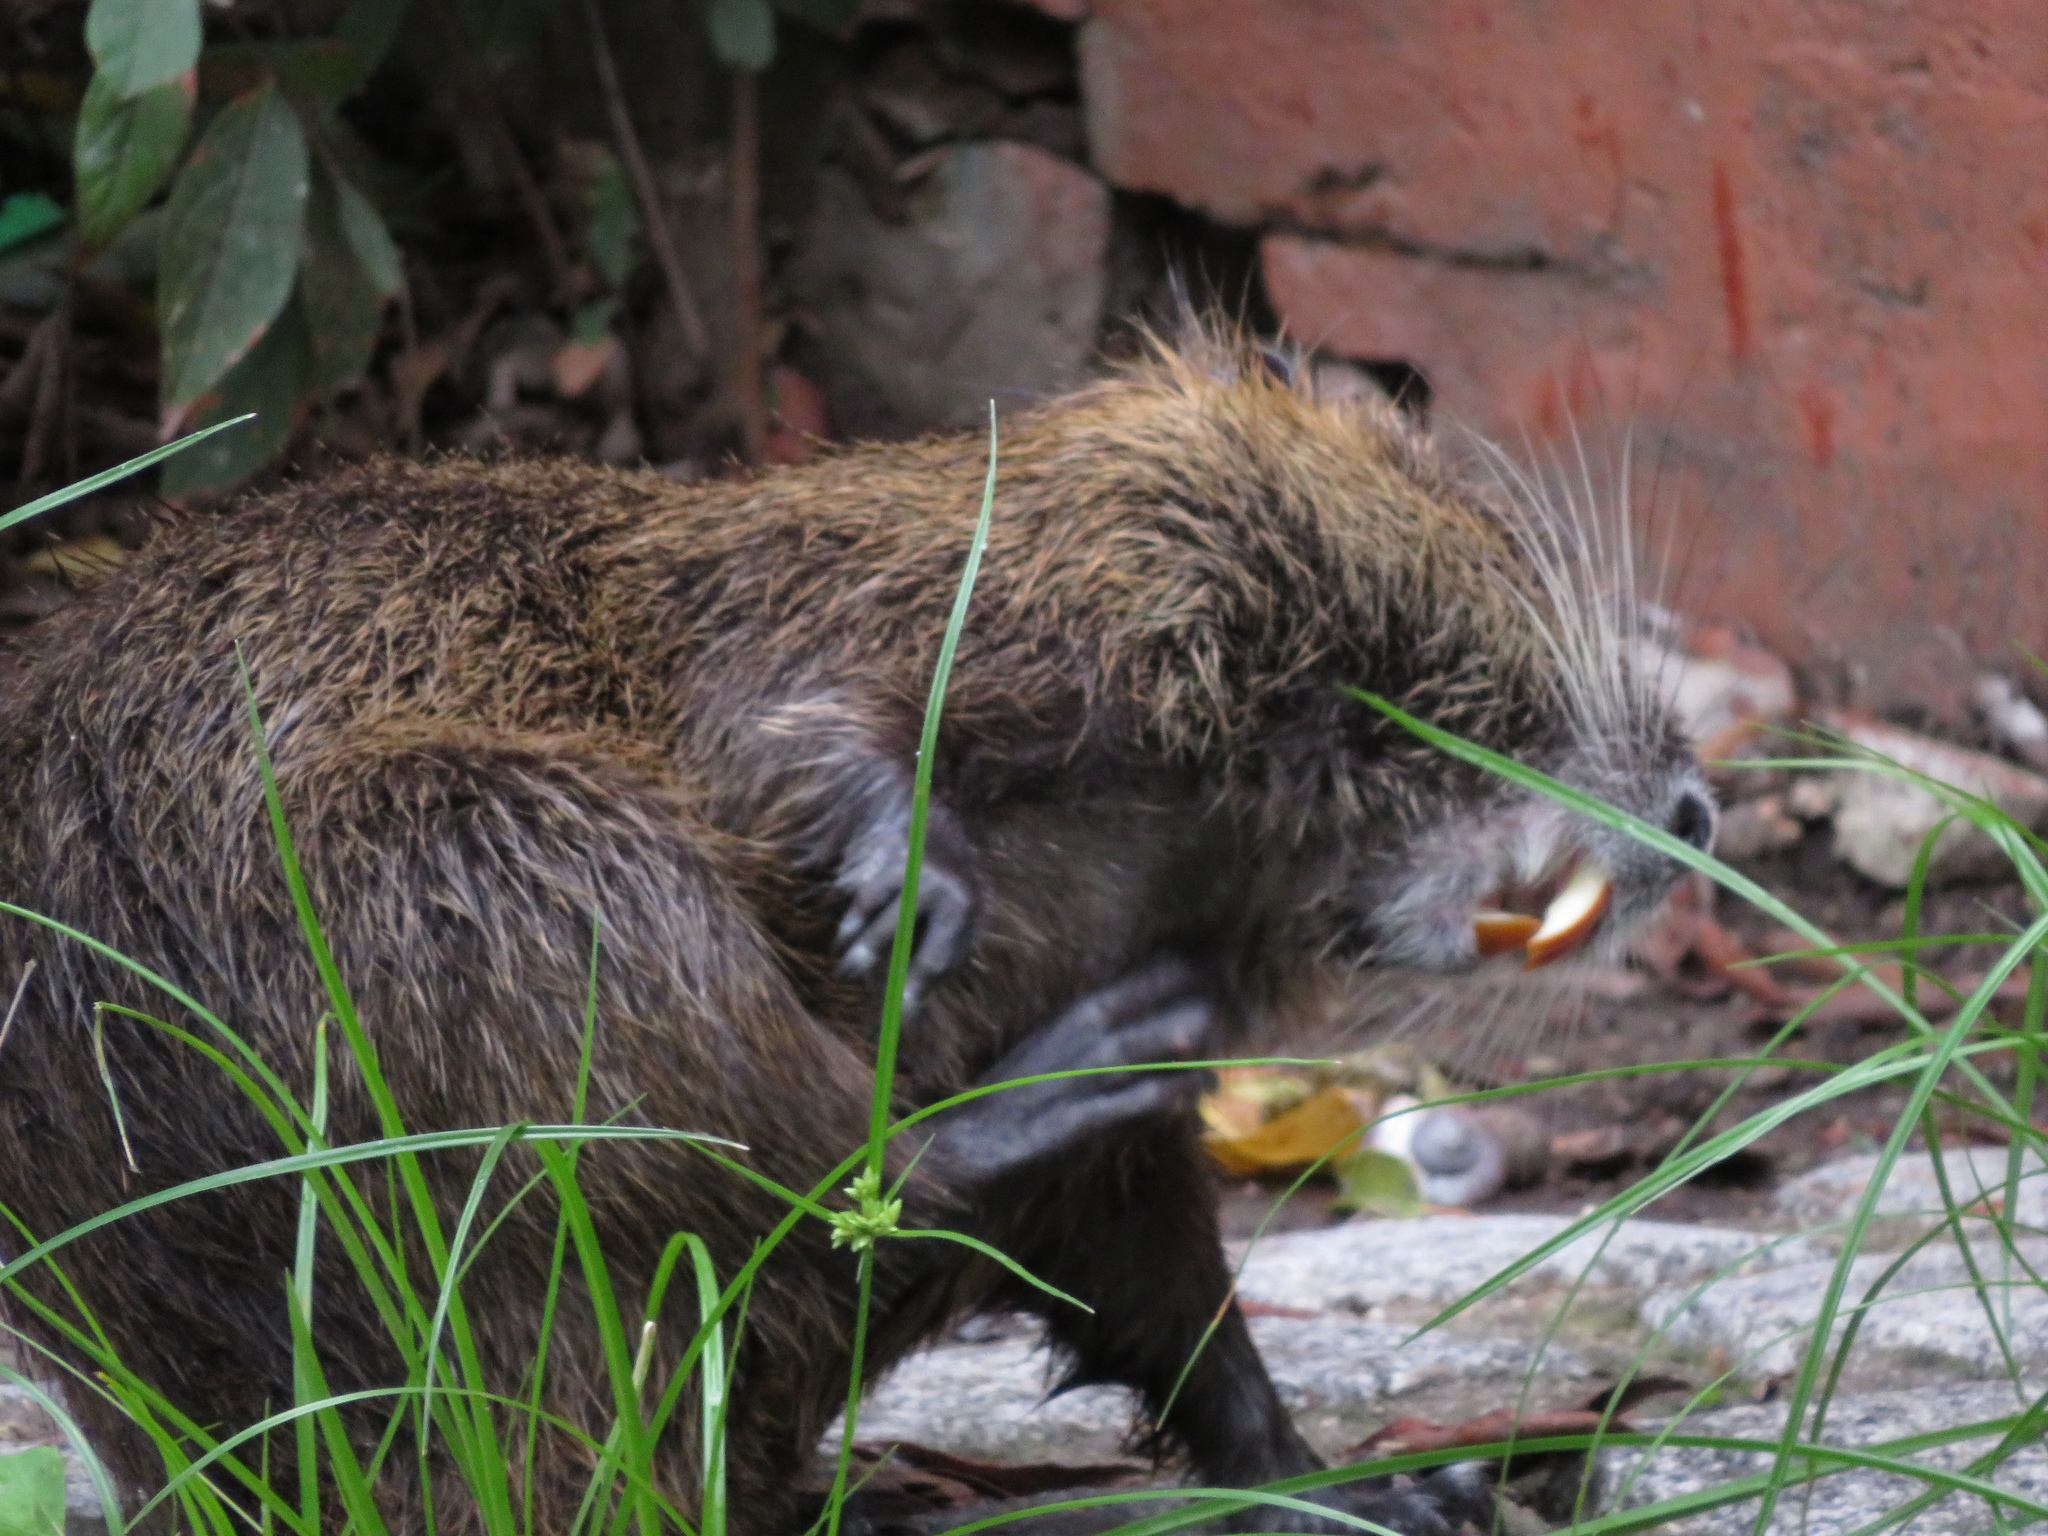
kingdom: Animalia
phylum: Chordata
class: Mammalia
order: Rodentia
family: Myocastoridae
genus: Myocastor
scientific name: Myocastor coypus
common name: Coypu
